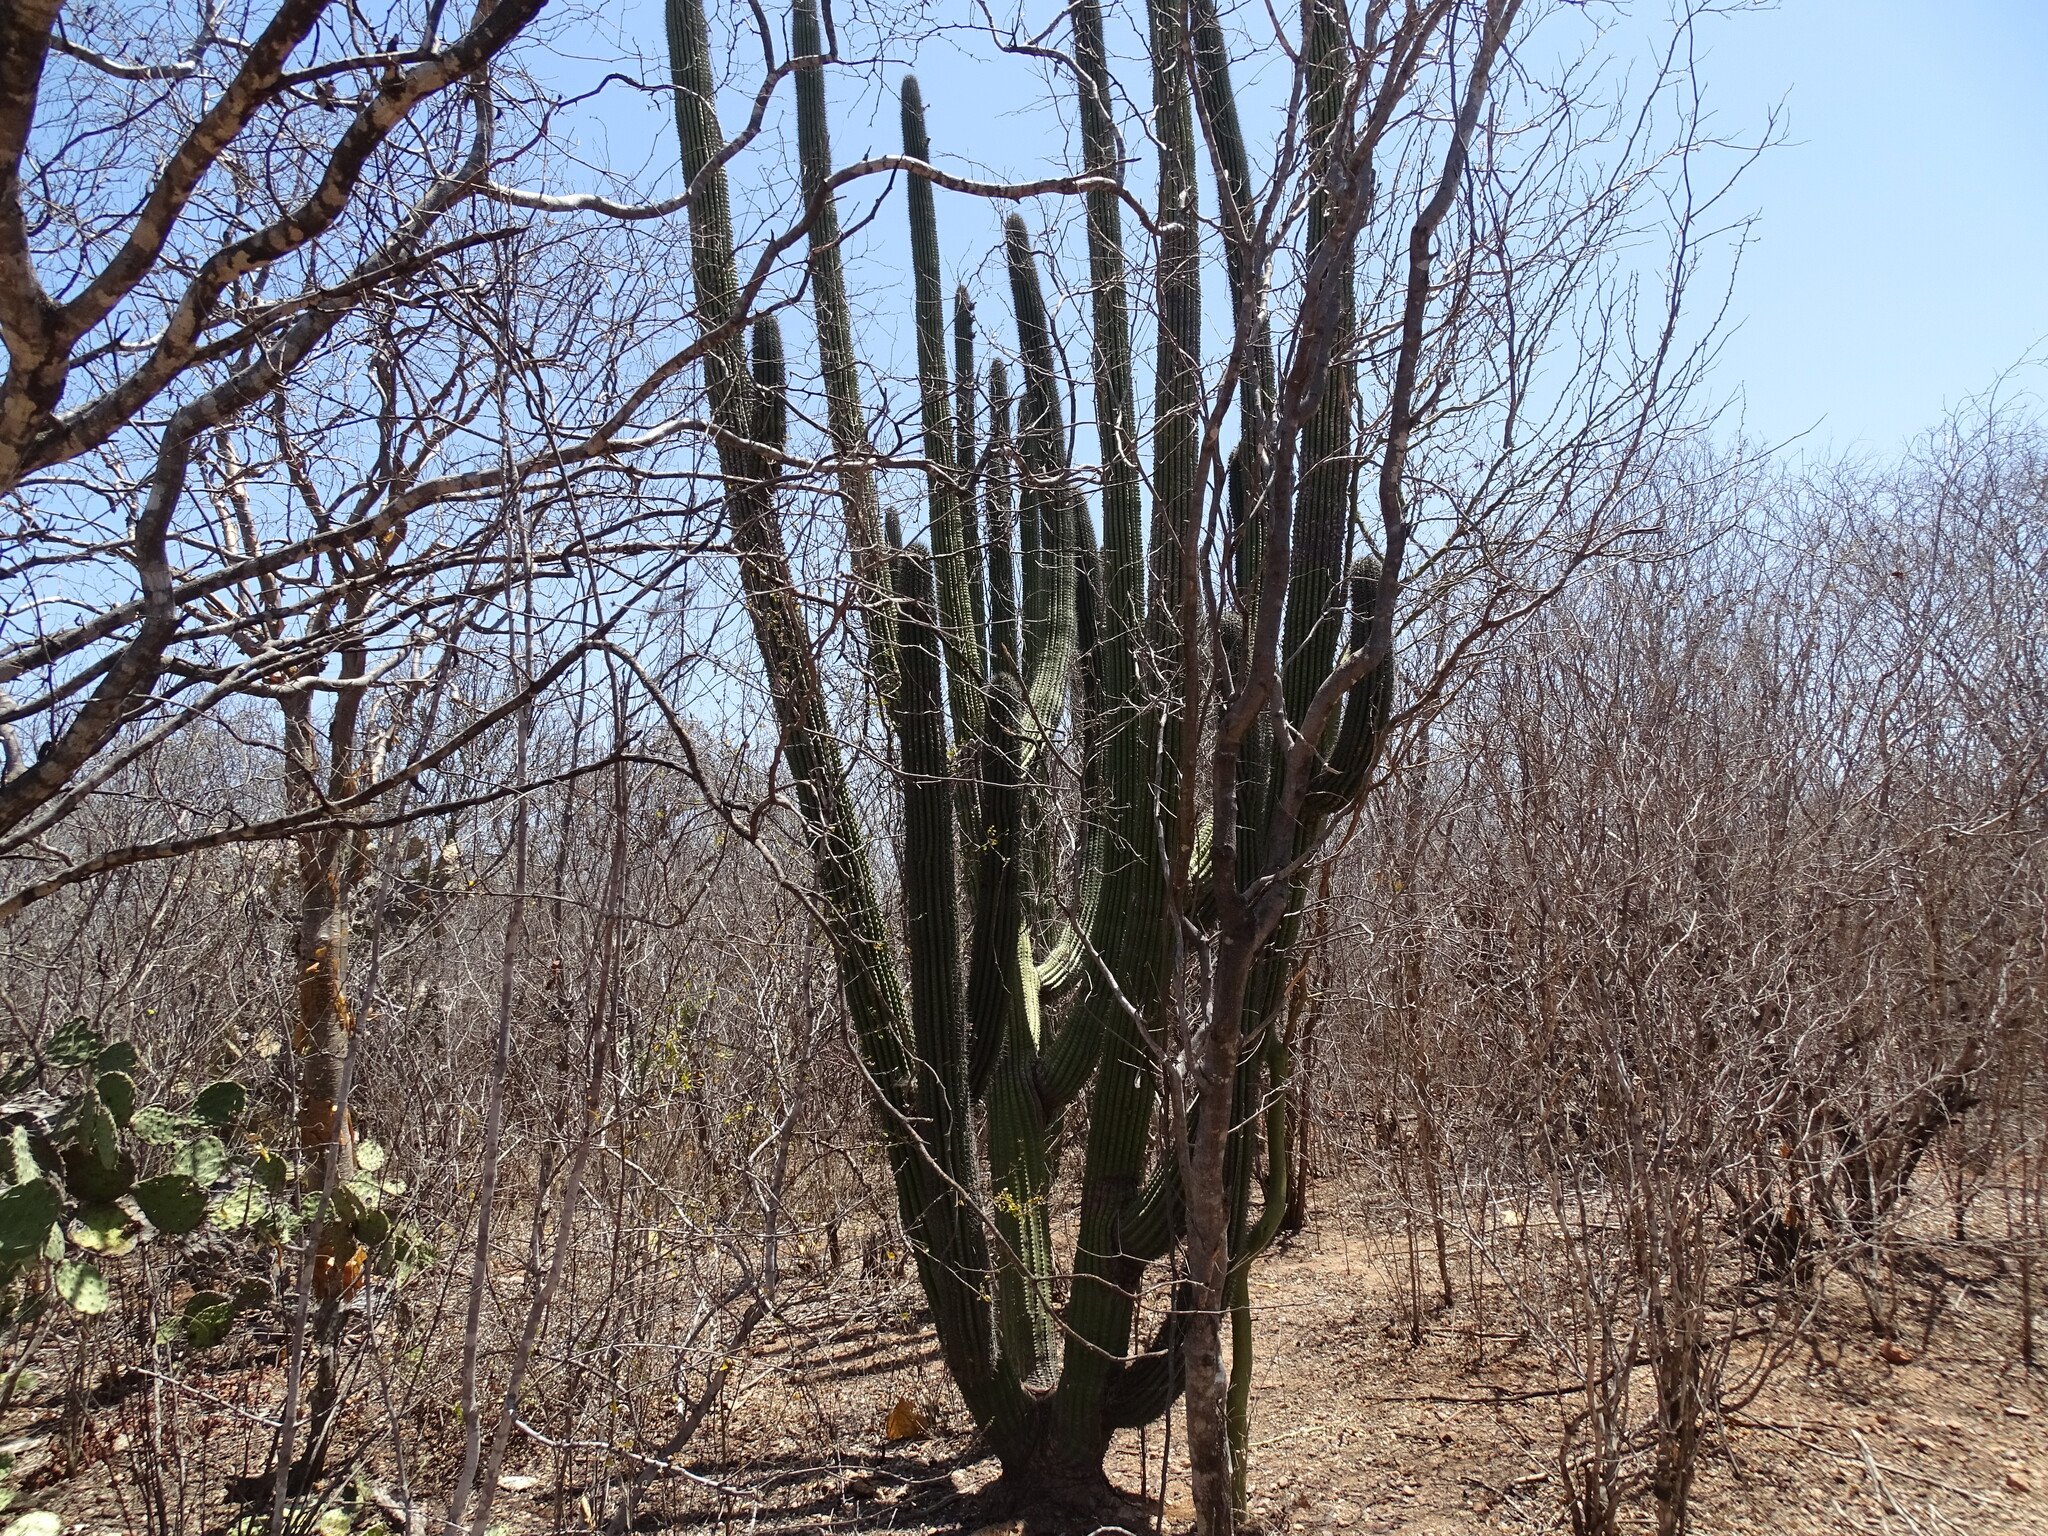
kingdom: Plantae
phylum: Tracheophyta
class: Magnoliopsida
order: Caryophyllales
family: Cactaceae
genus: Stenocereus
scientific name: Stenocereus thurberi
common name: Organ pipe cactus
